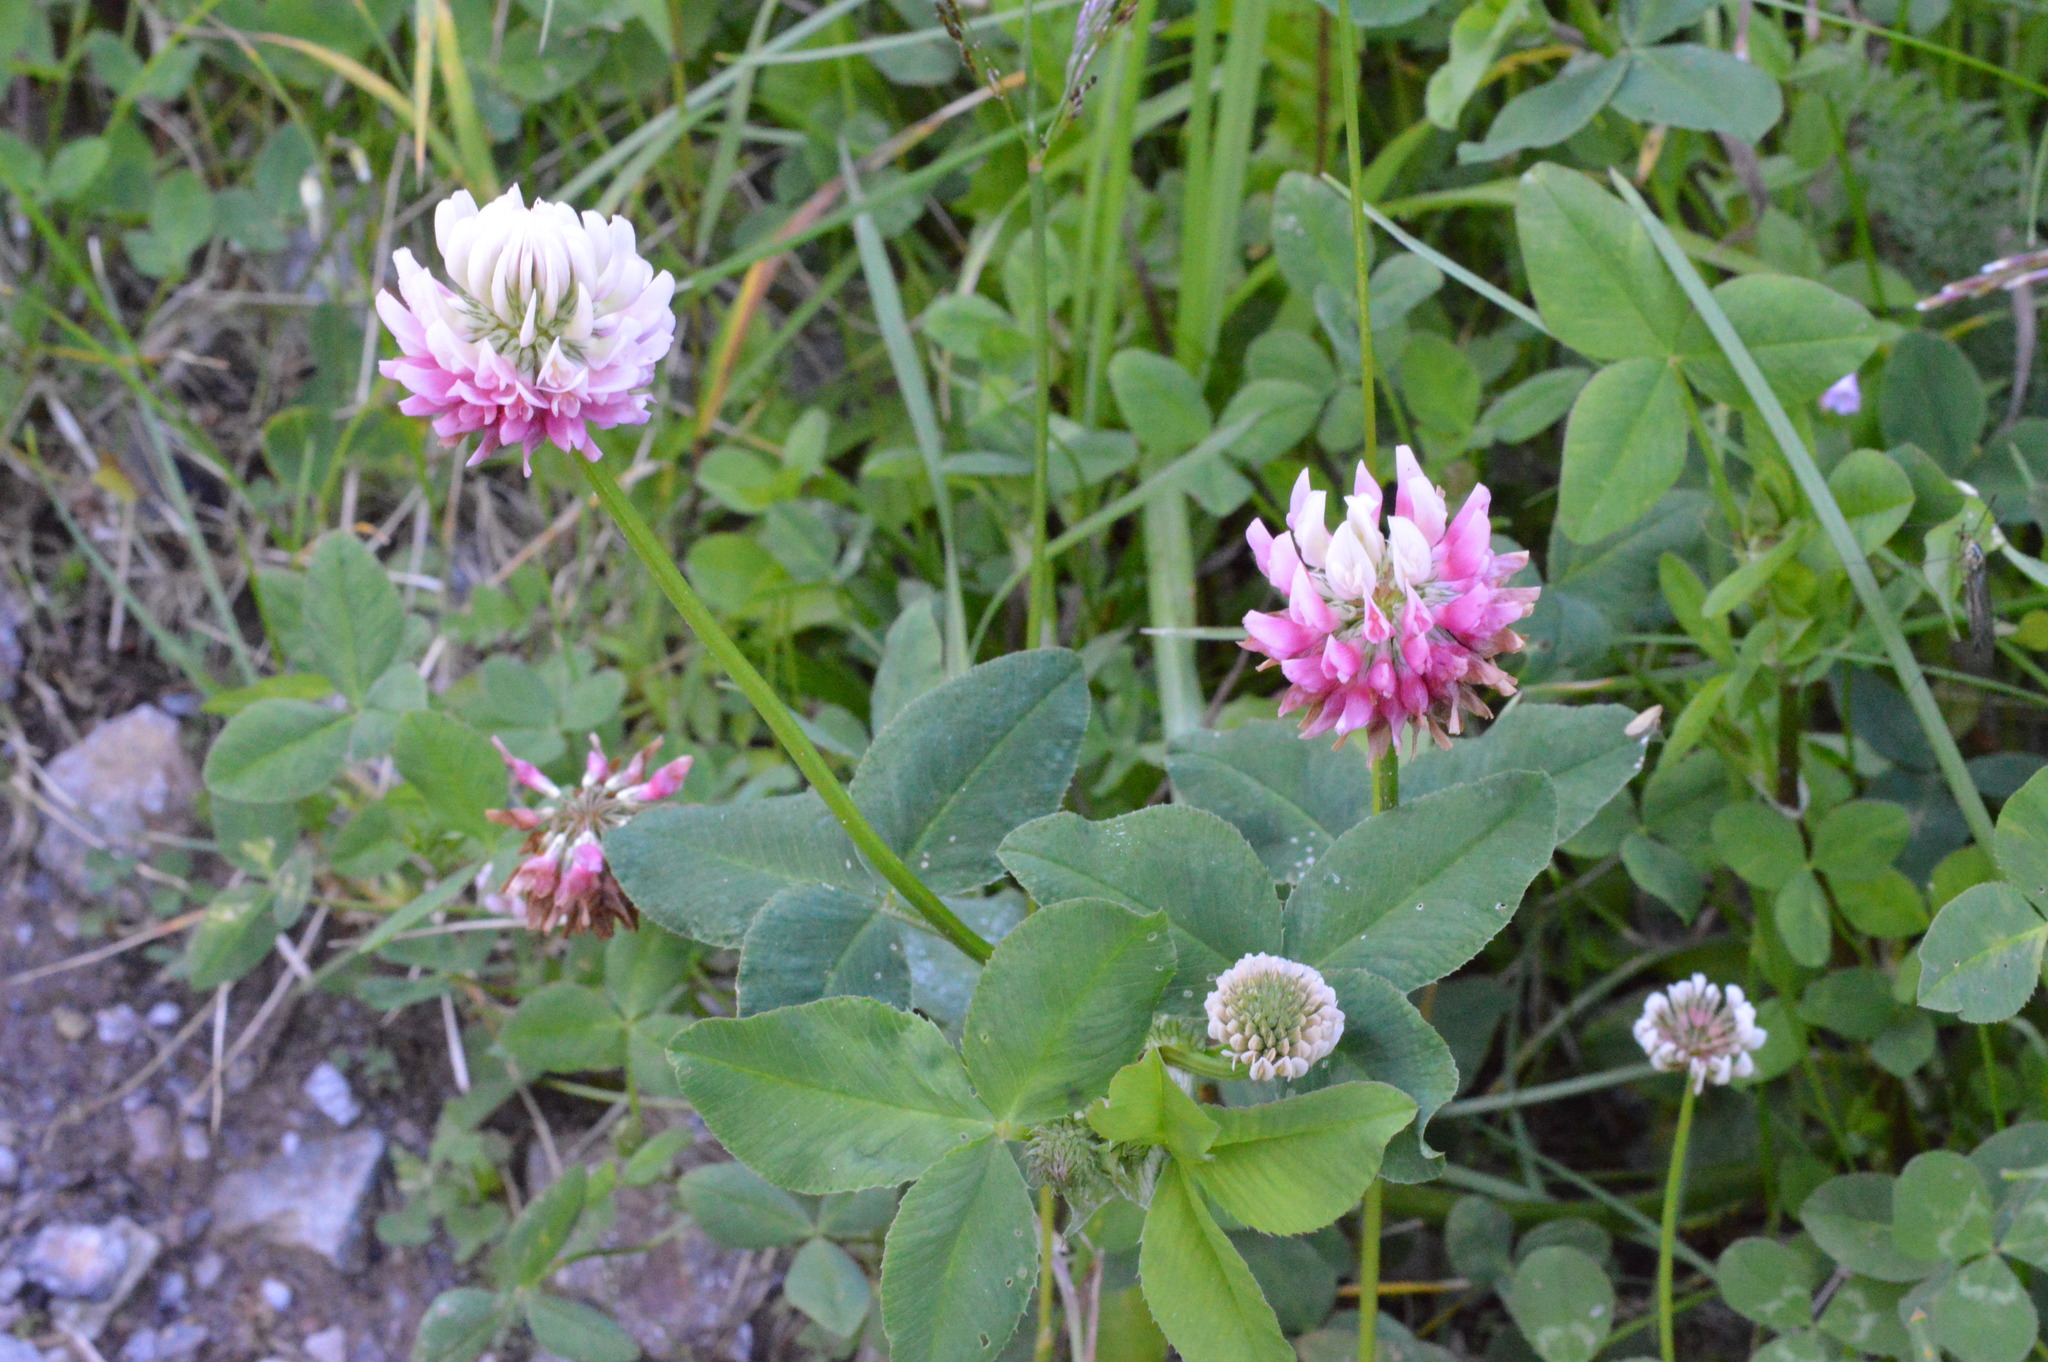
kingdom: Plantae
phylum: Tracheophyta
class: Magnoliopsida
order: Fabales
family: Fabaceae
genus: Trifolium
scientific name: Trifolium hybridum
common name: Alsike clover
